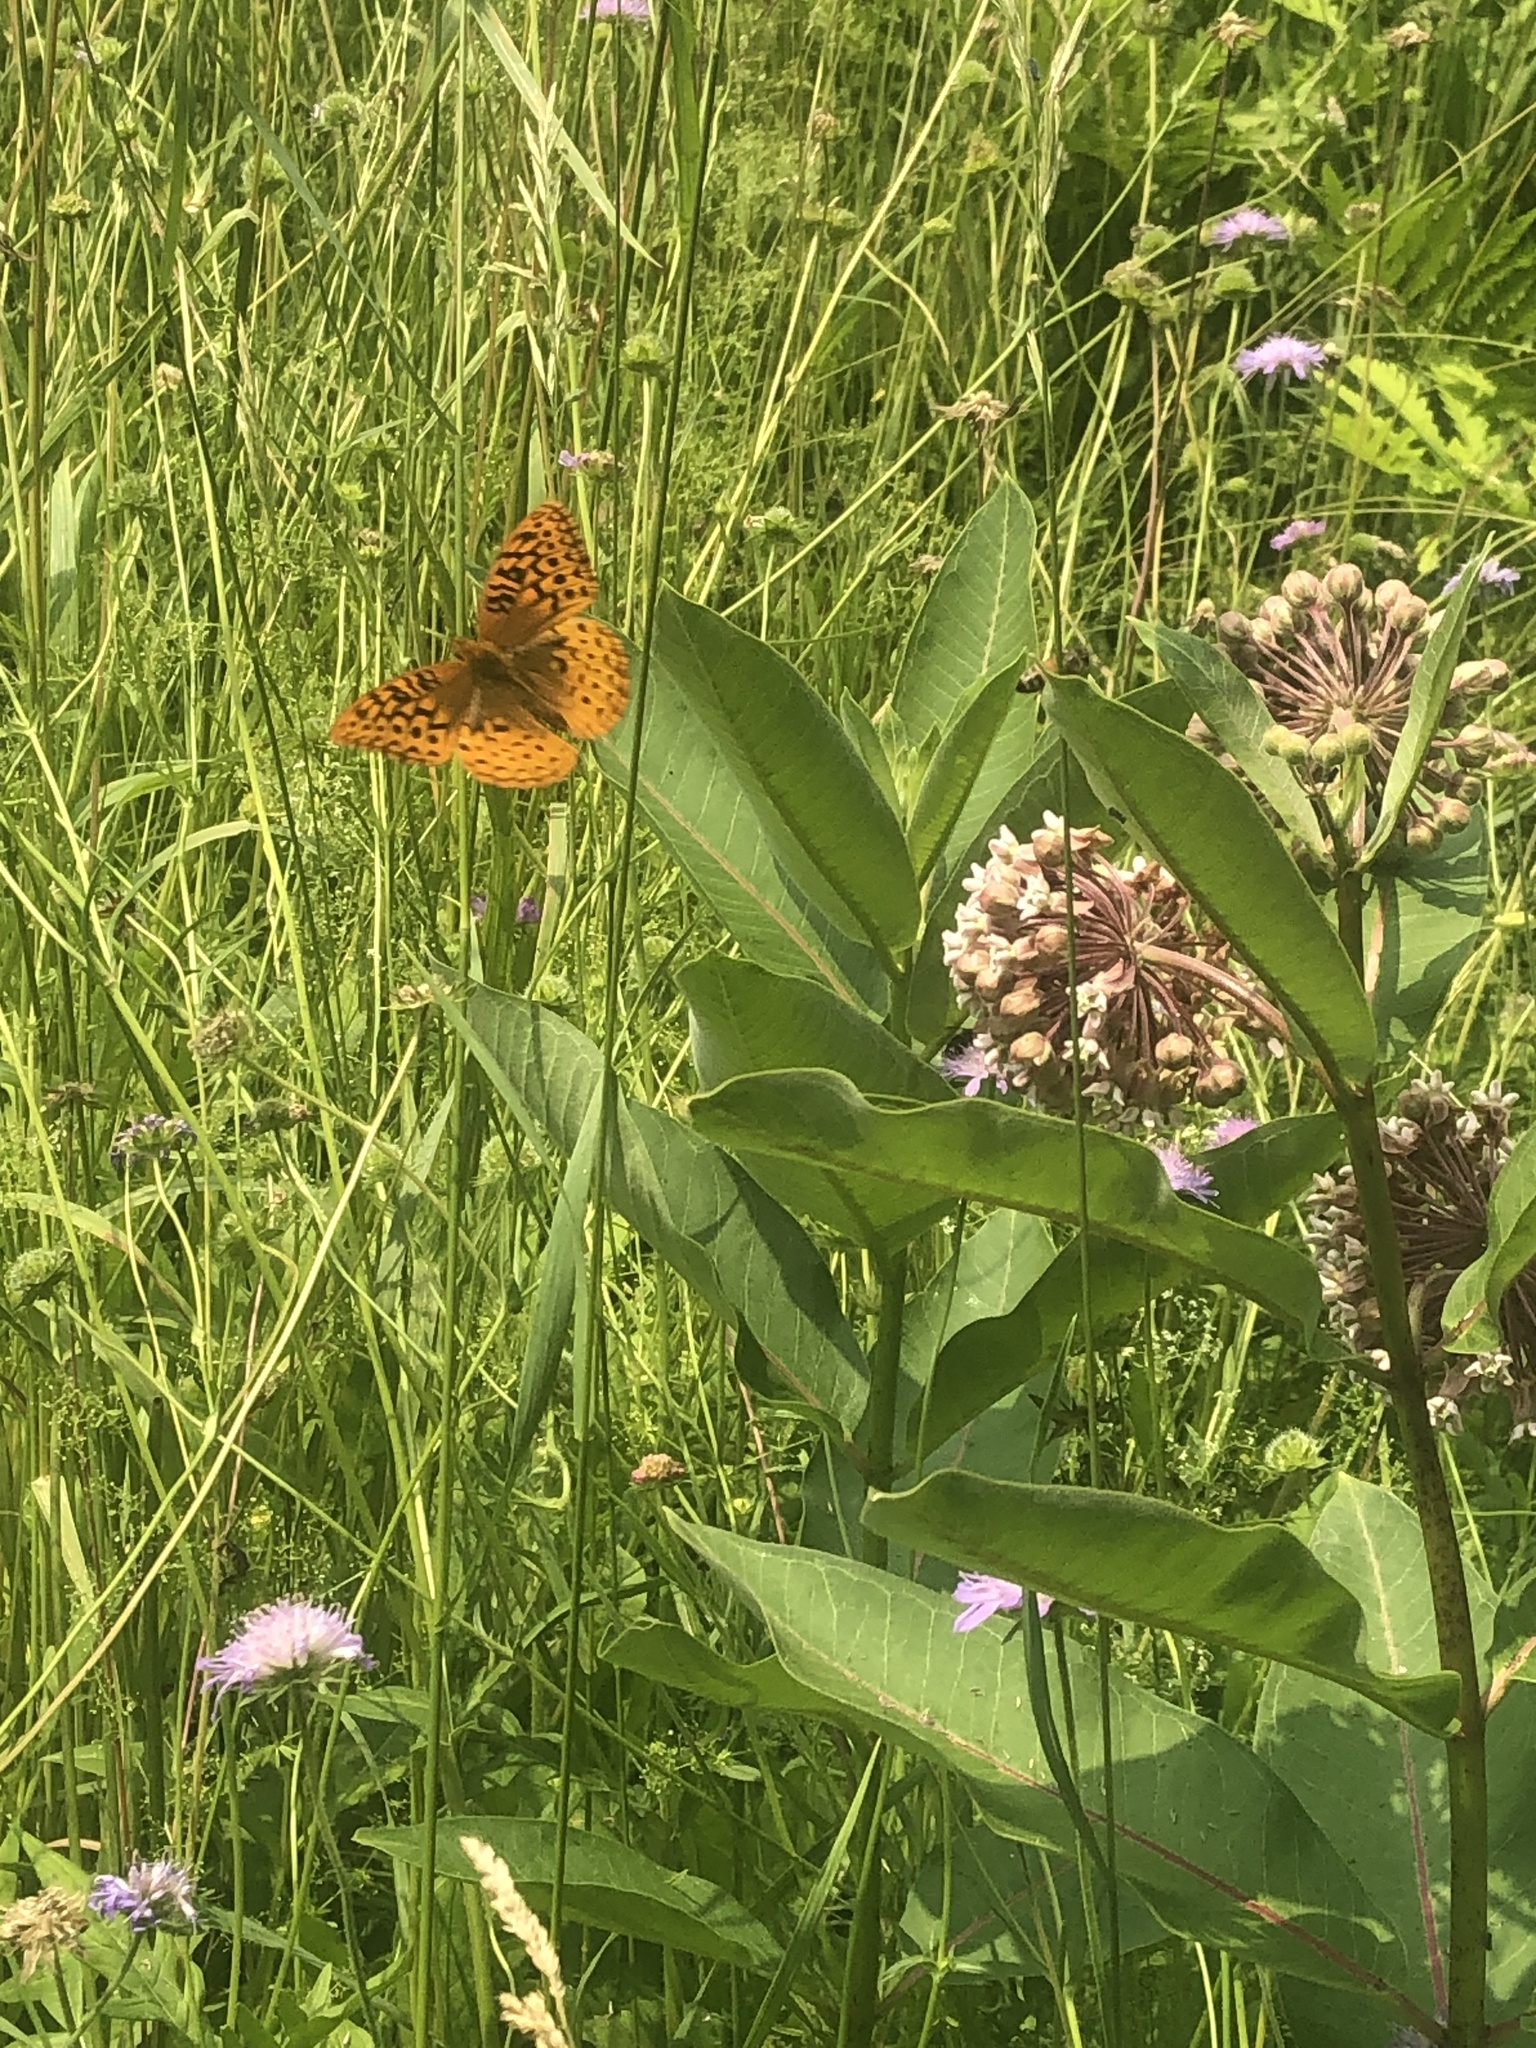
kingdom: Animalia
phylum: Arthropoda
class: Insecta
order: Lepidoptera
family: Nymphalidae
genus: Speyeria
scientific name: Speyeria cybele
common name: Great spangled fritillary
